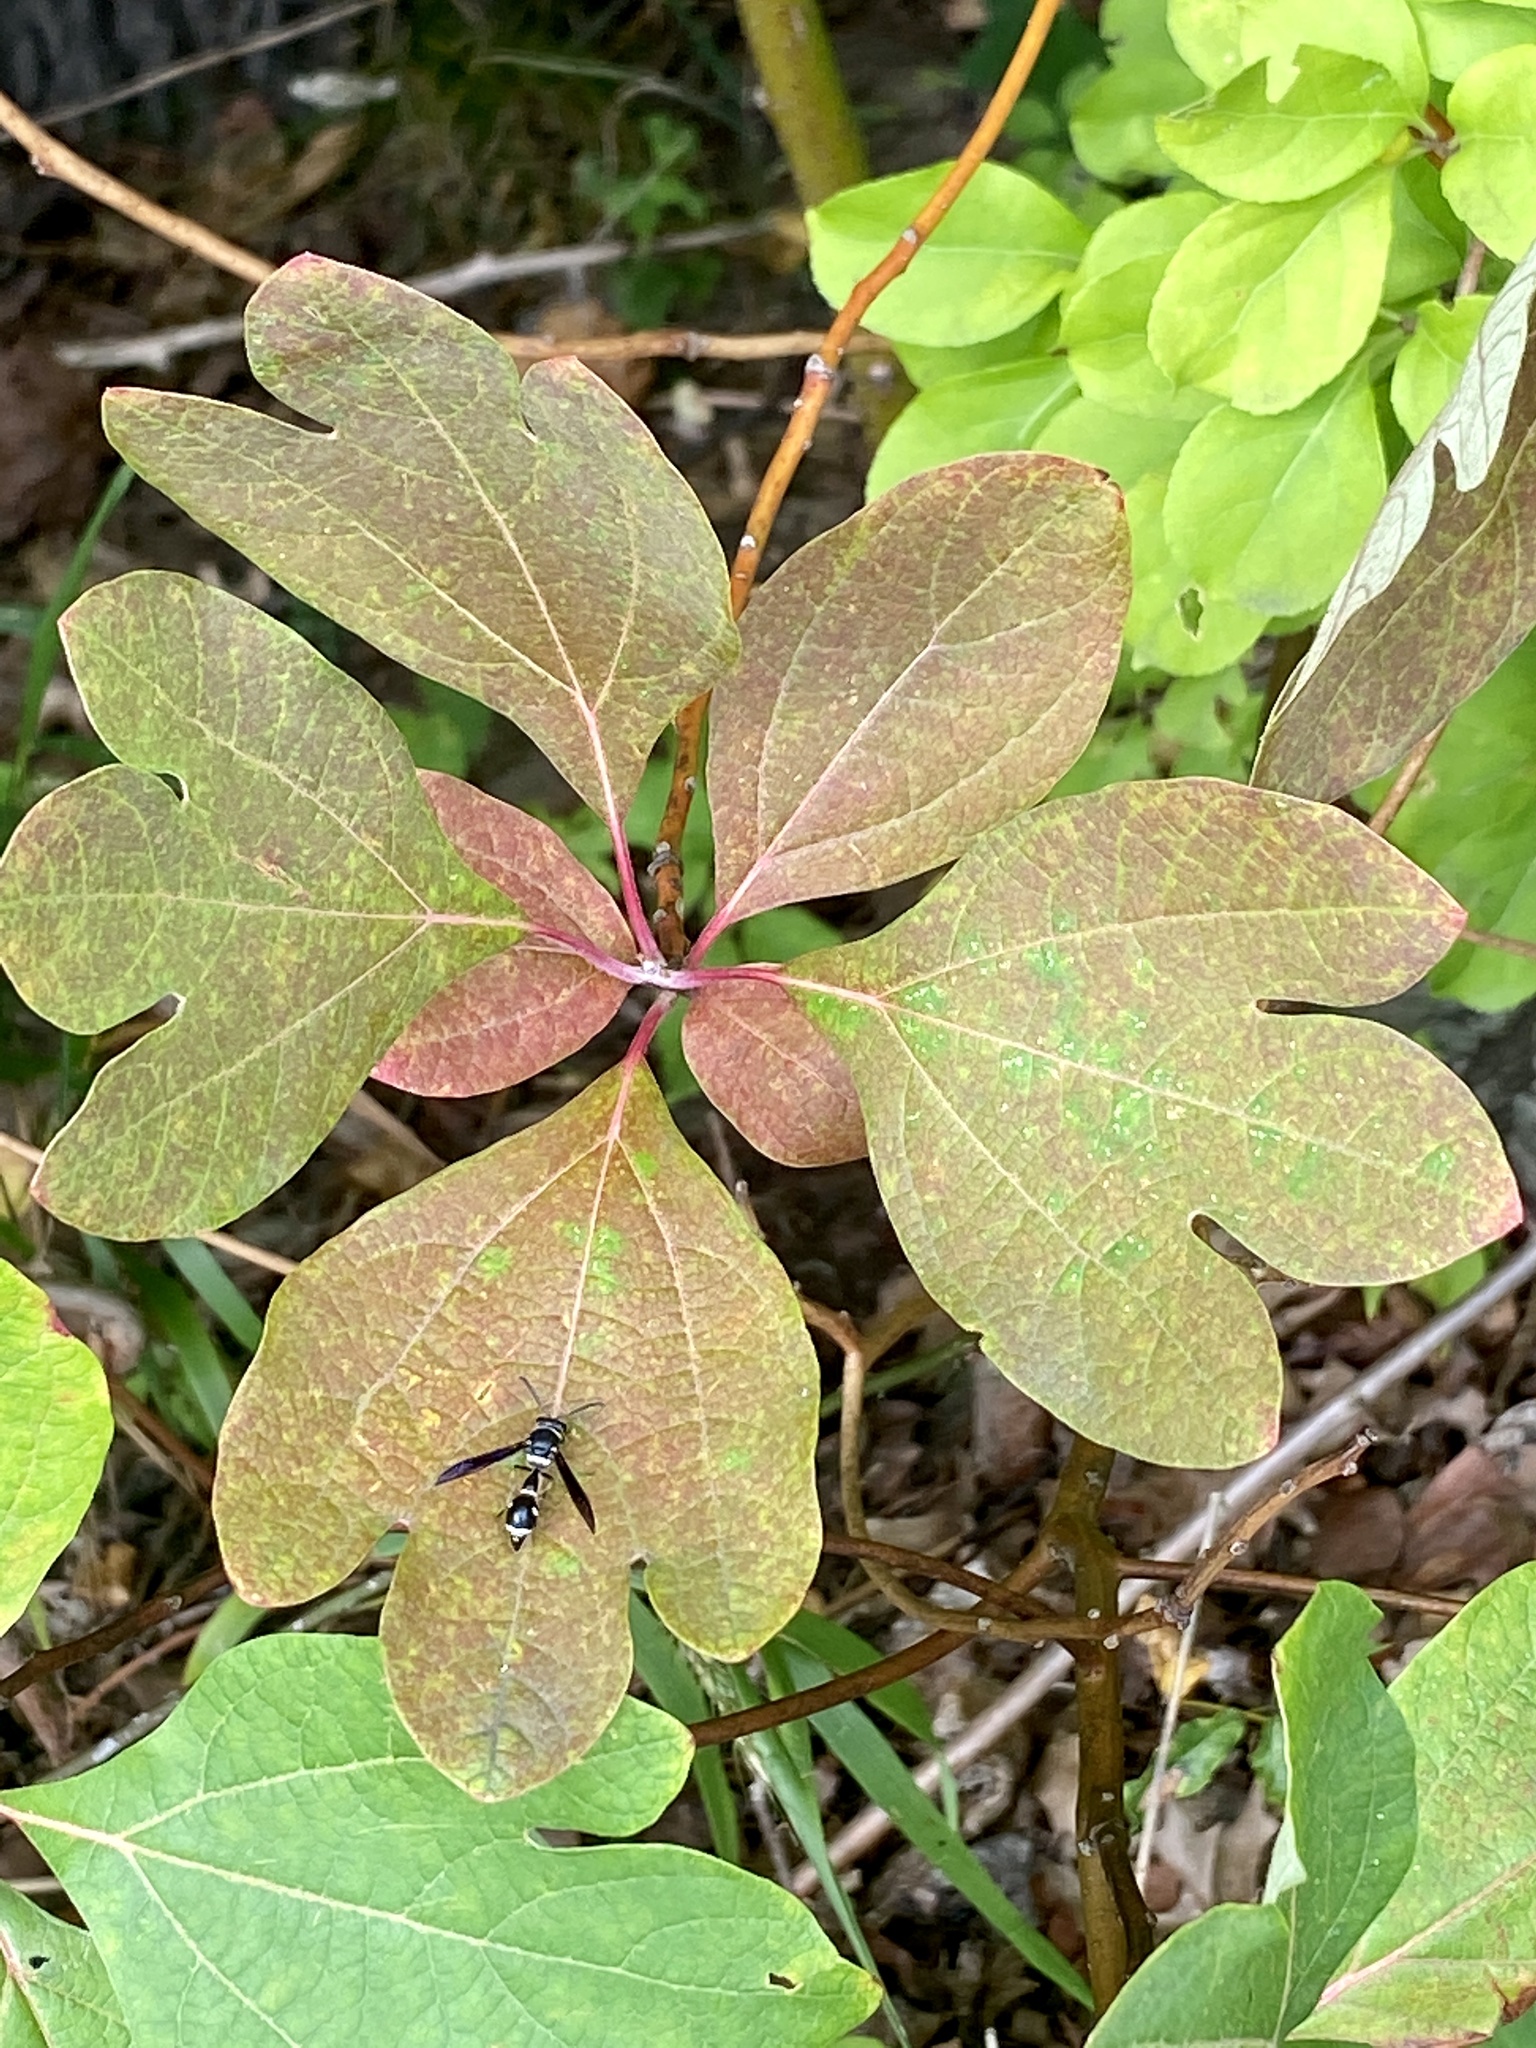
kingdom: Plantae
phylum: Tracheophyta
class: Magnoliopsida
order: Laurales
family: Lauraceae
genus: Sassafras
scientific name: Sassafras albidum
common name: Sassafras
